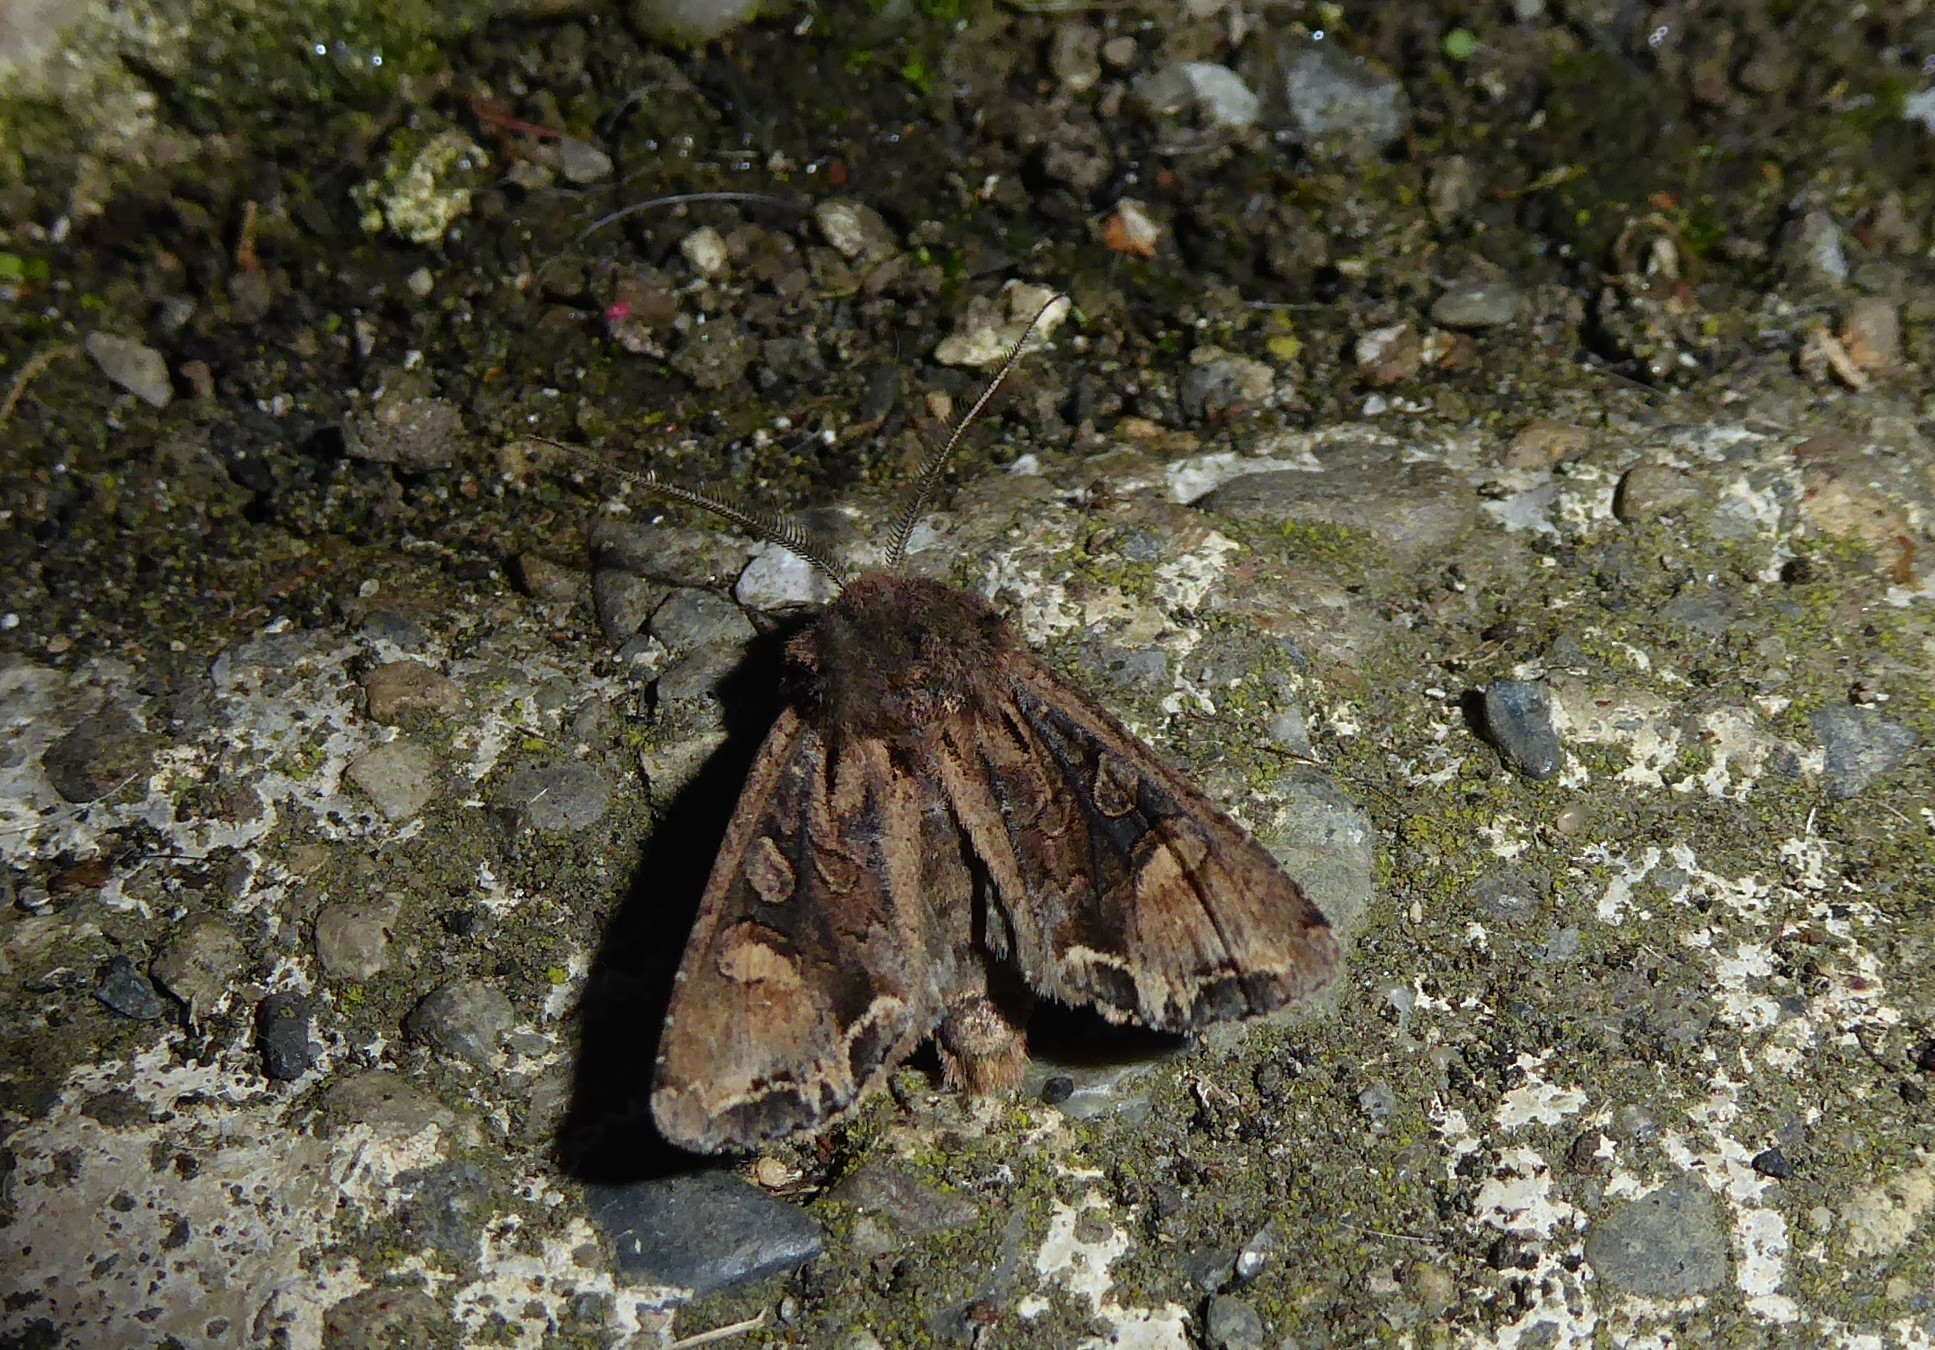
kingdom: Animalia
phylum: Arthropoda
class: Insecta
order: Lepidoptera
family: Noctuidae
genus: Ichneutica
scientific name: Ichneutica
